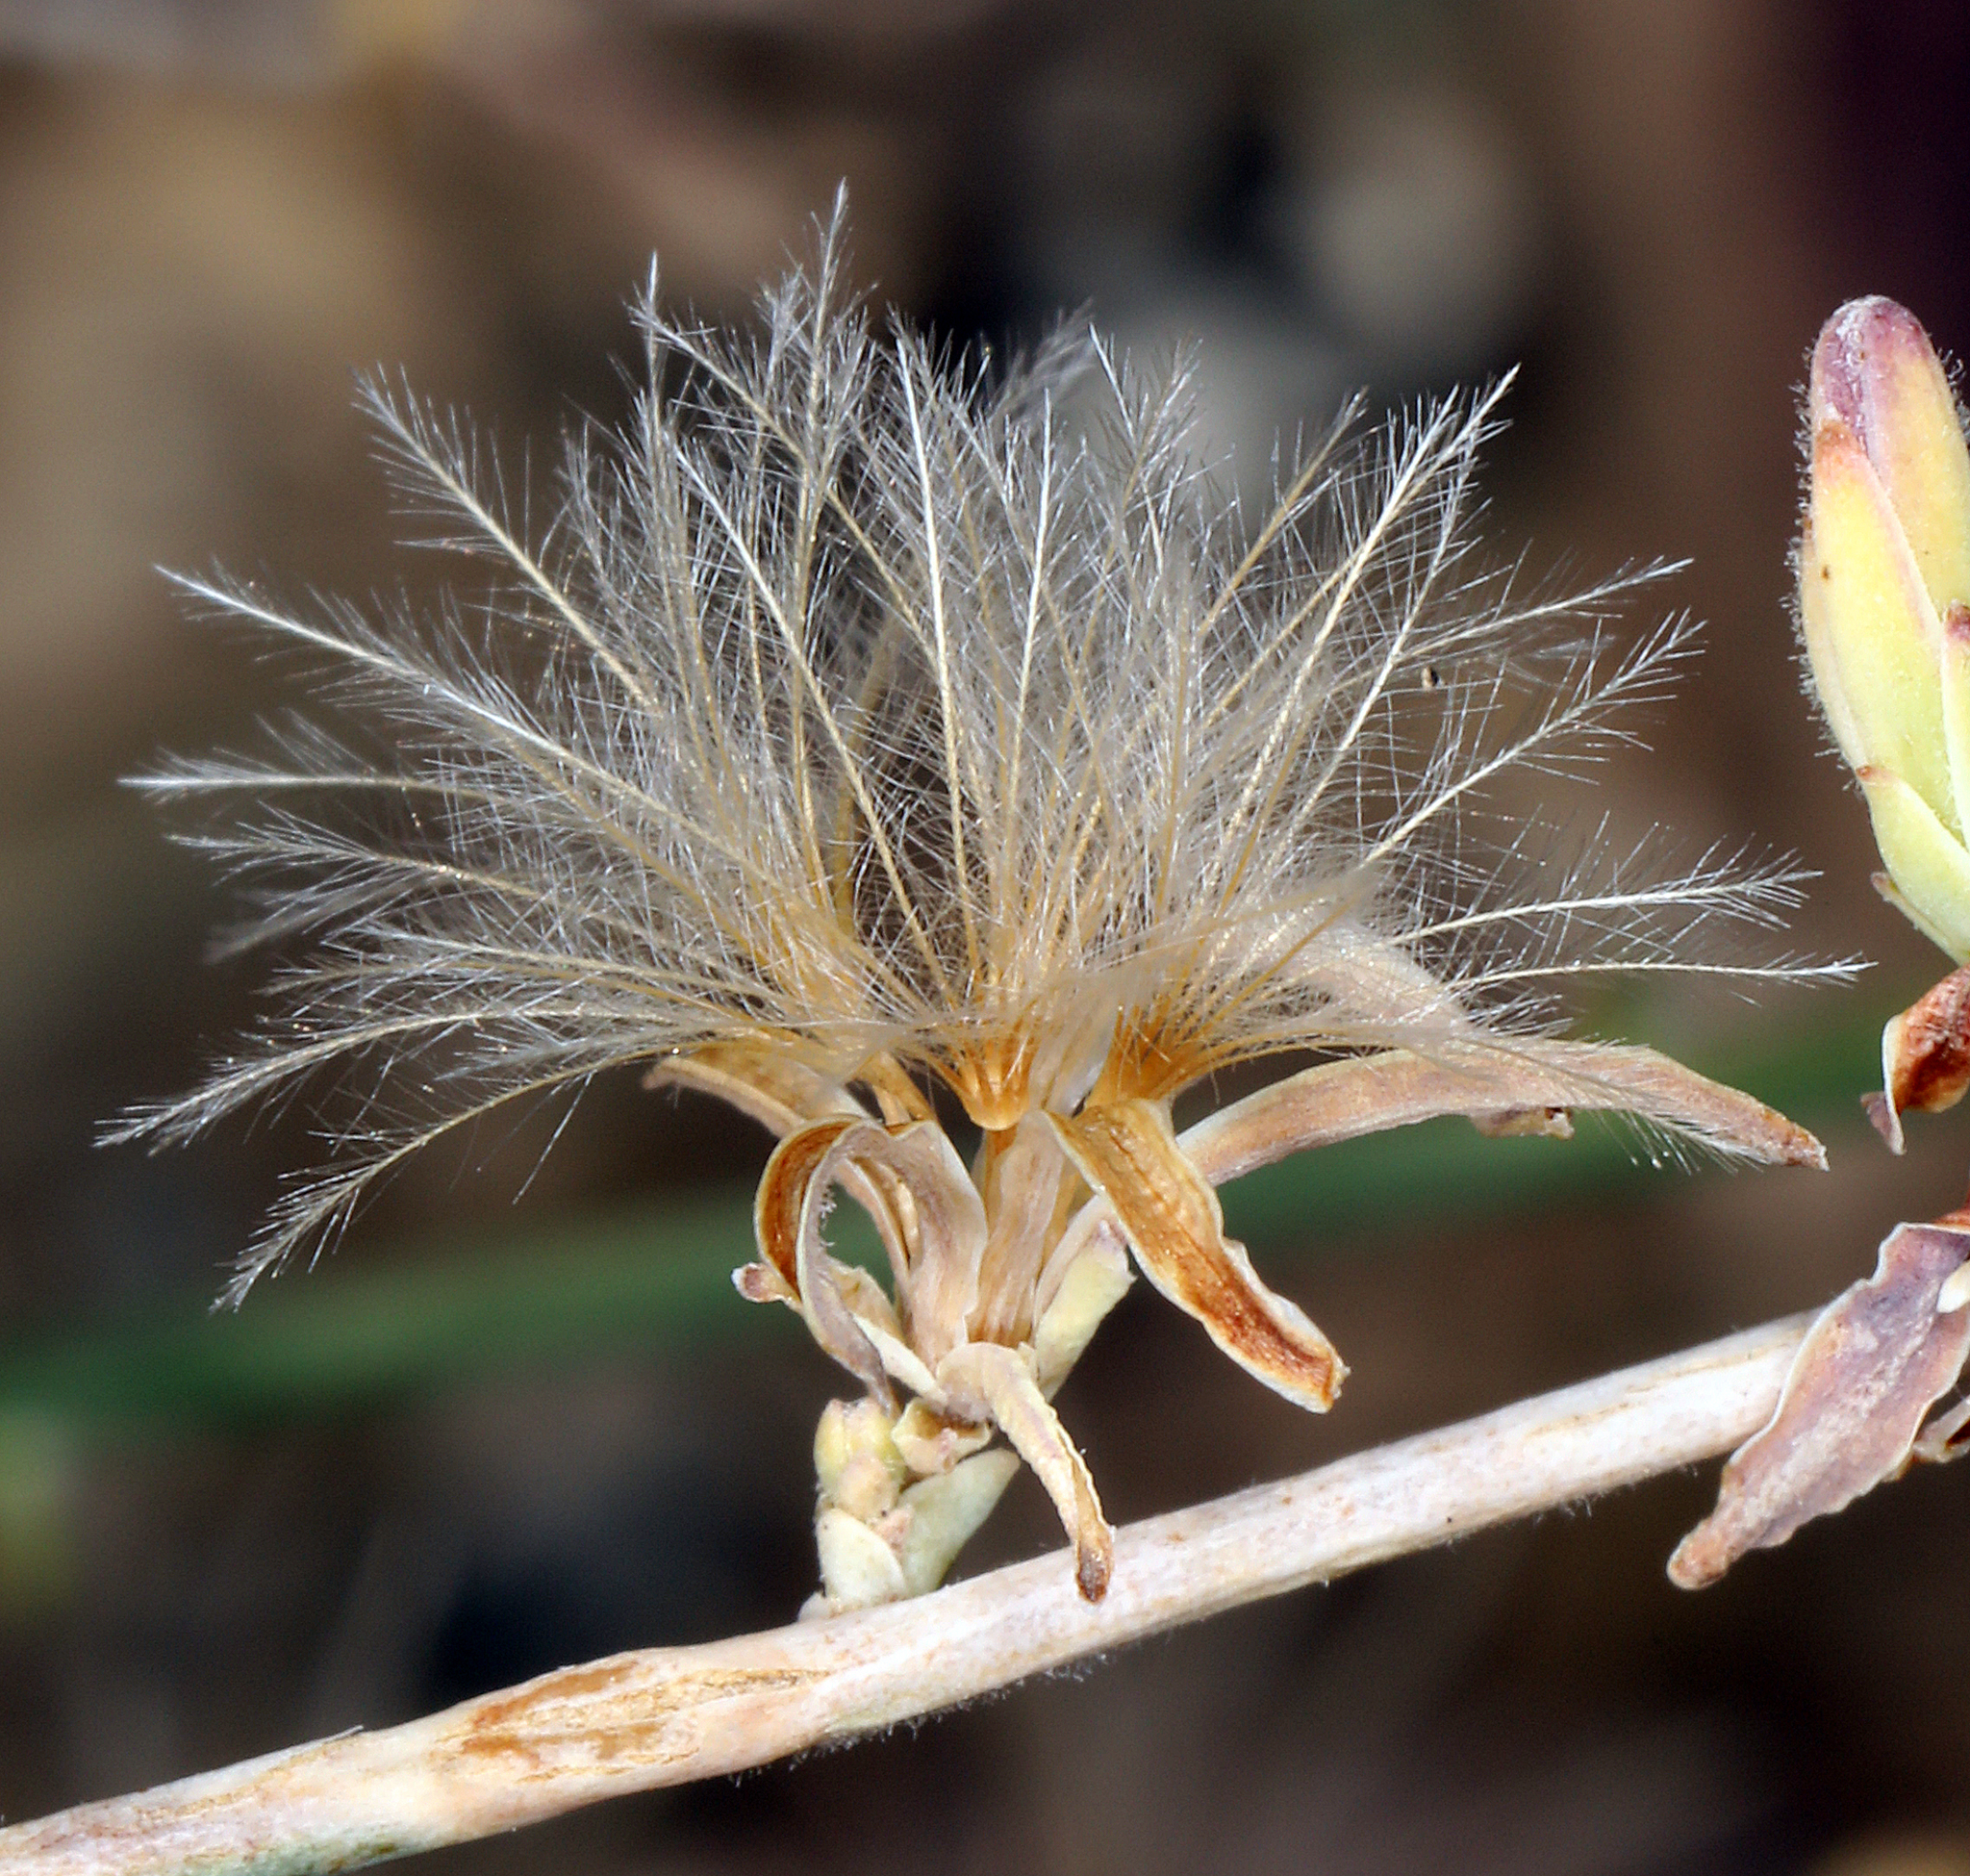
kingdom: Plantae
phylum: Tracheophyta
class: Magnoliopsida
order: Asterales
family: Asteraceae
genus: Stephanomeria
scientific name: Stephanomeria pauciflora
